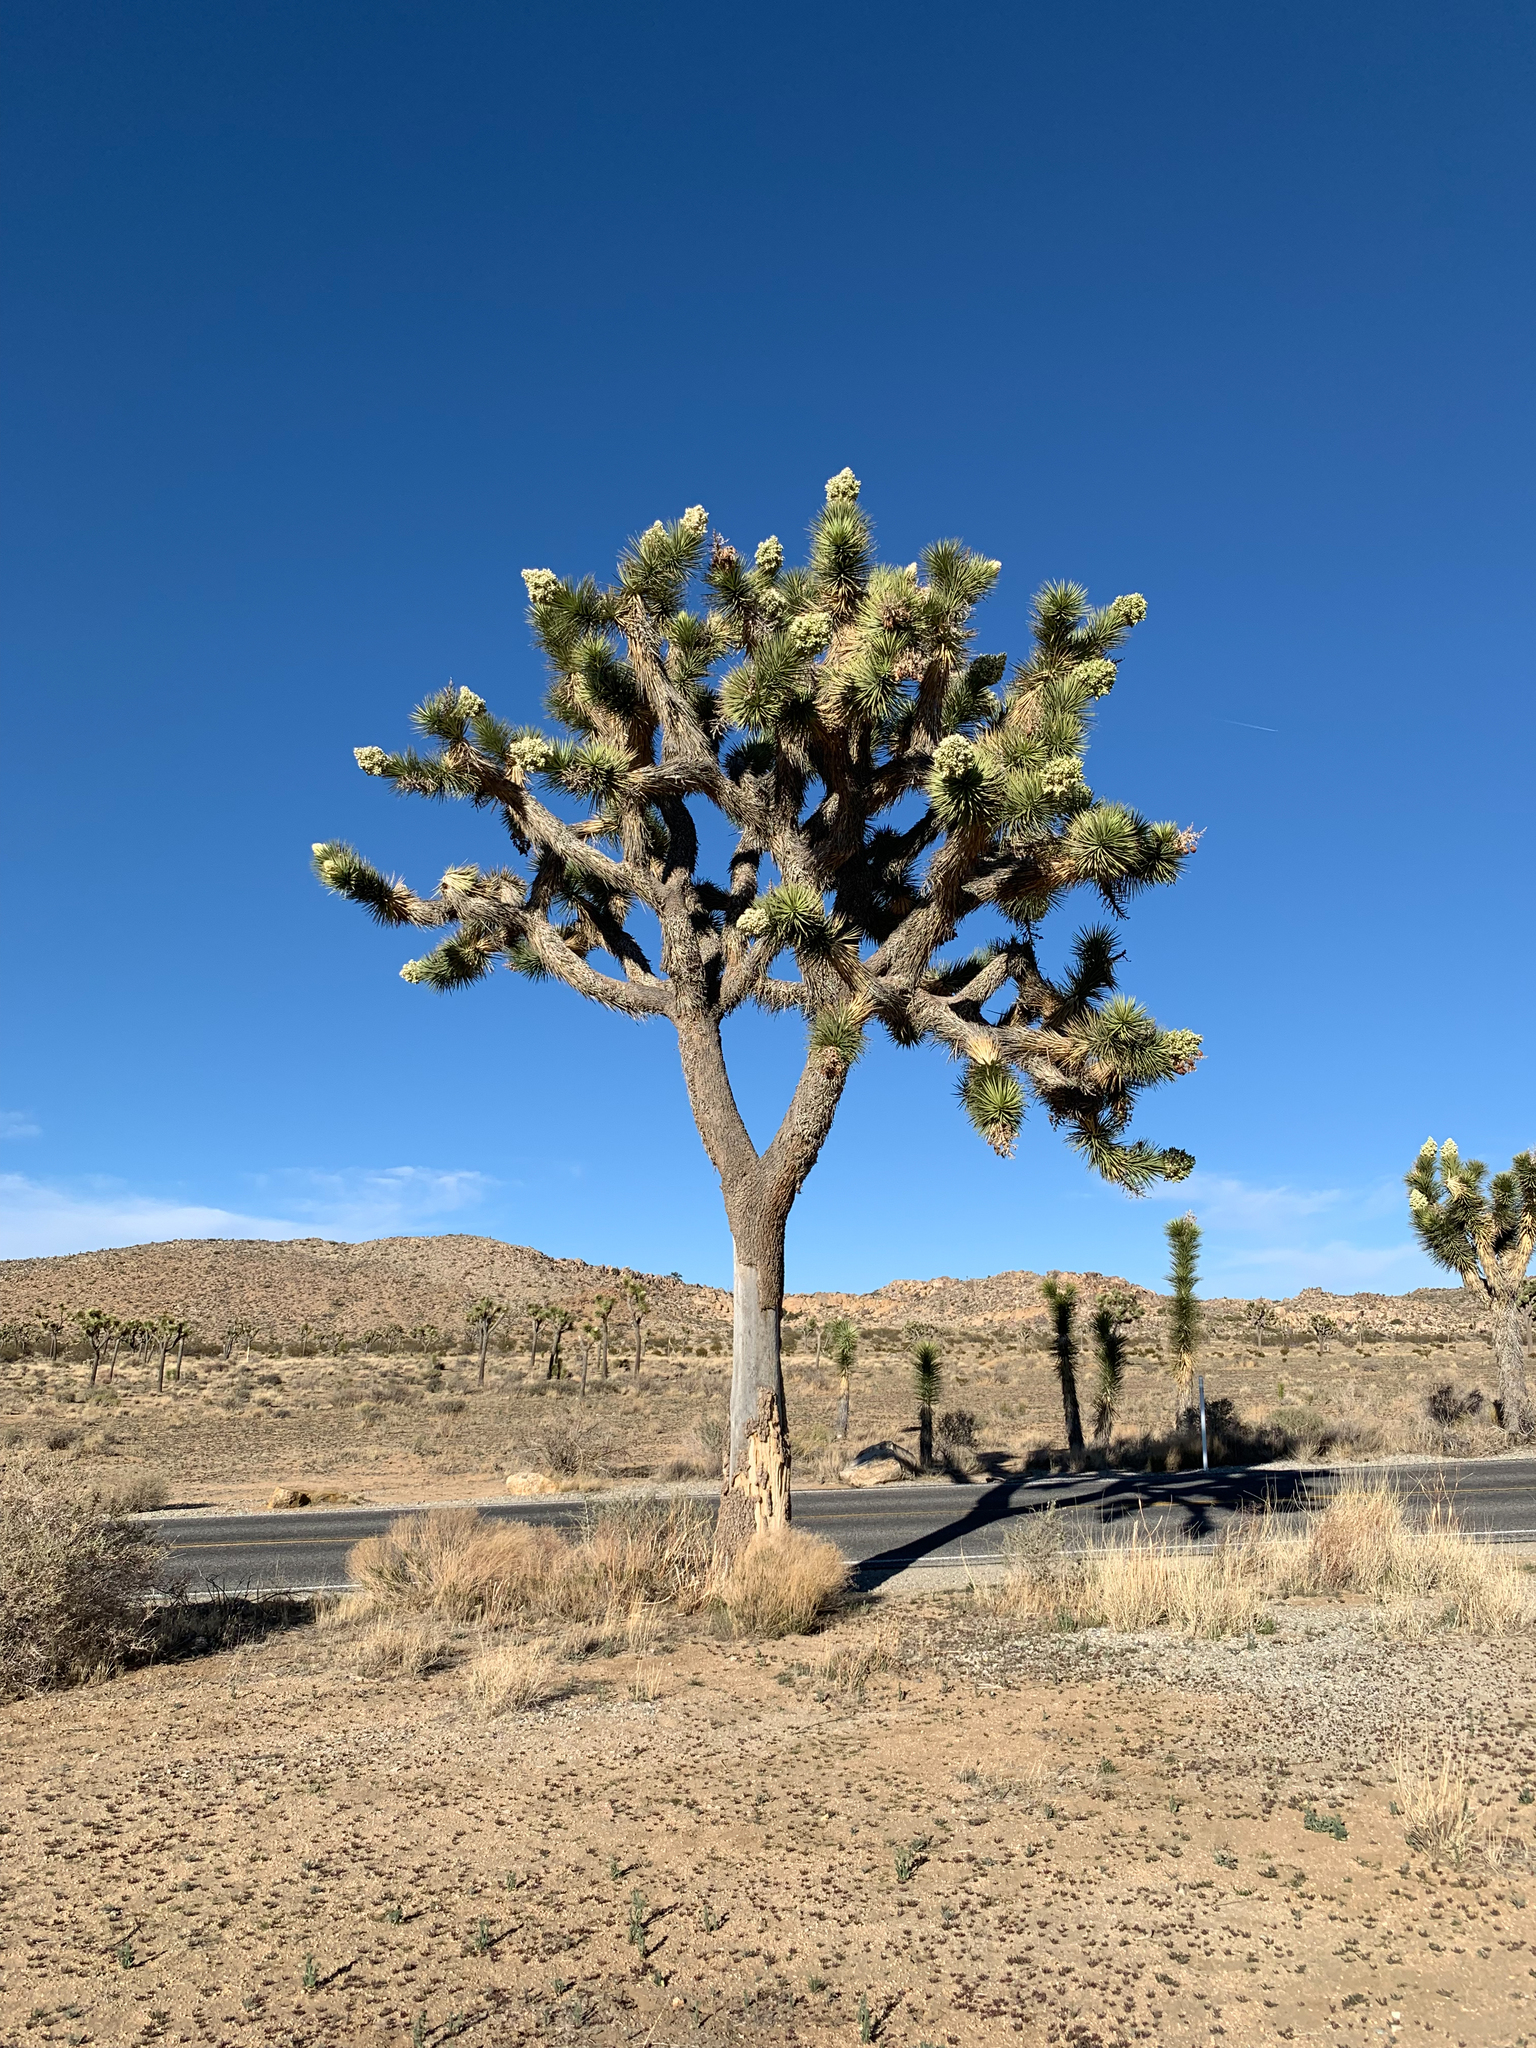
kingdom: Plantae
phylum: Tracheophyta
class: Liliopsida
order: Asparagales
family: Asparagaceae
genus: Yucca
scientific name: Yucca brevifolia
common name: Joshua tree
